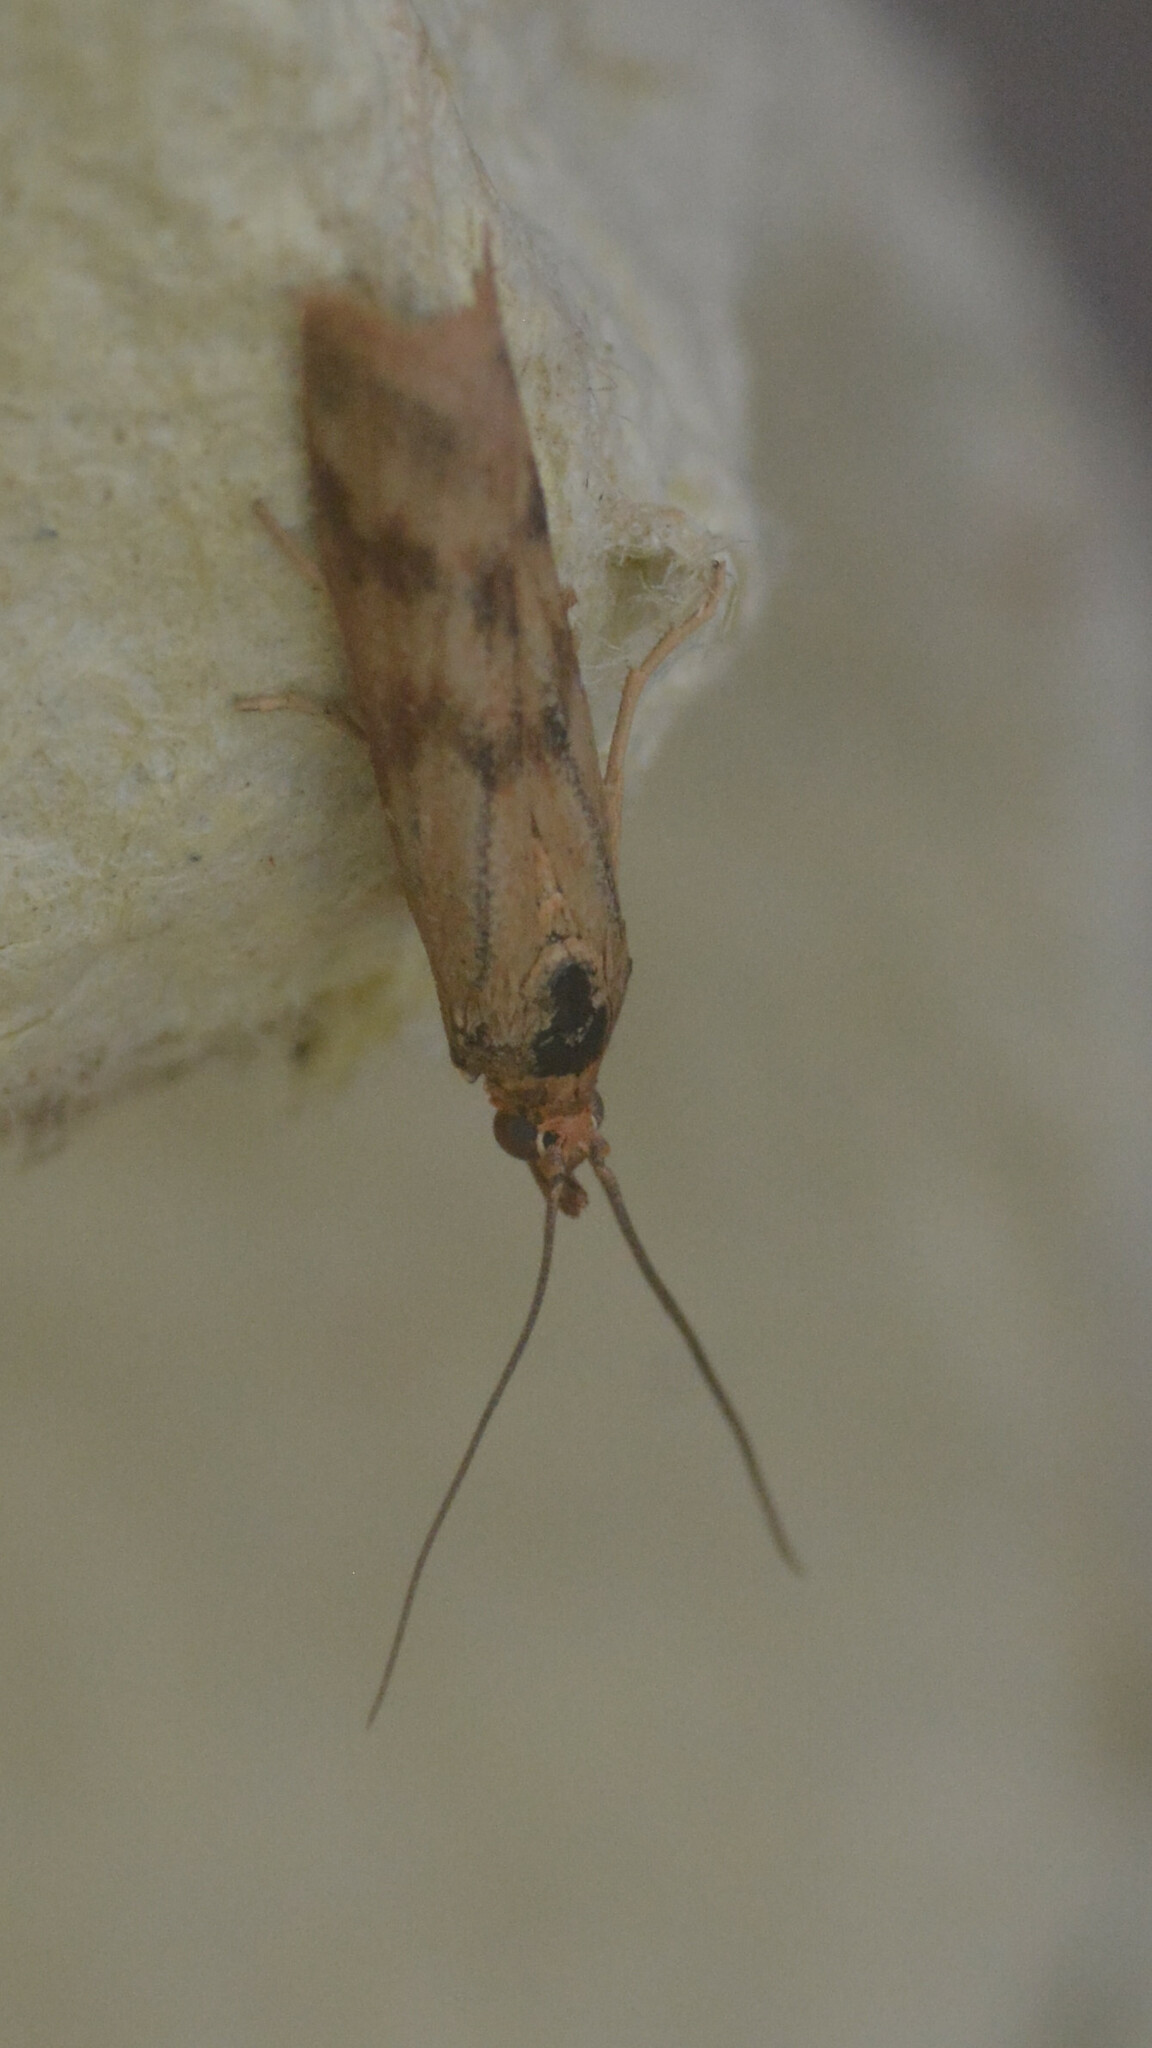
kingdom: Animalia
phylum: Arthropoda
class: Insecta
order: Lepidoptera
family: Pyralidae
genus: Homoeosoma
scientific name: Homoeosoma sinuella
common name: Twin-barred knot-horn
